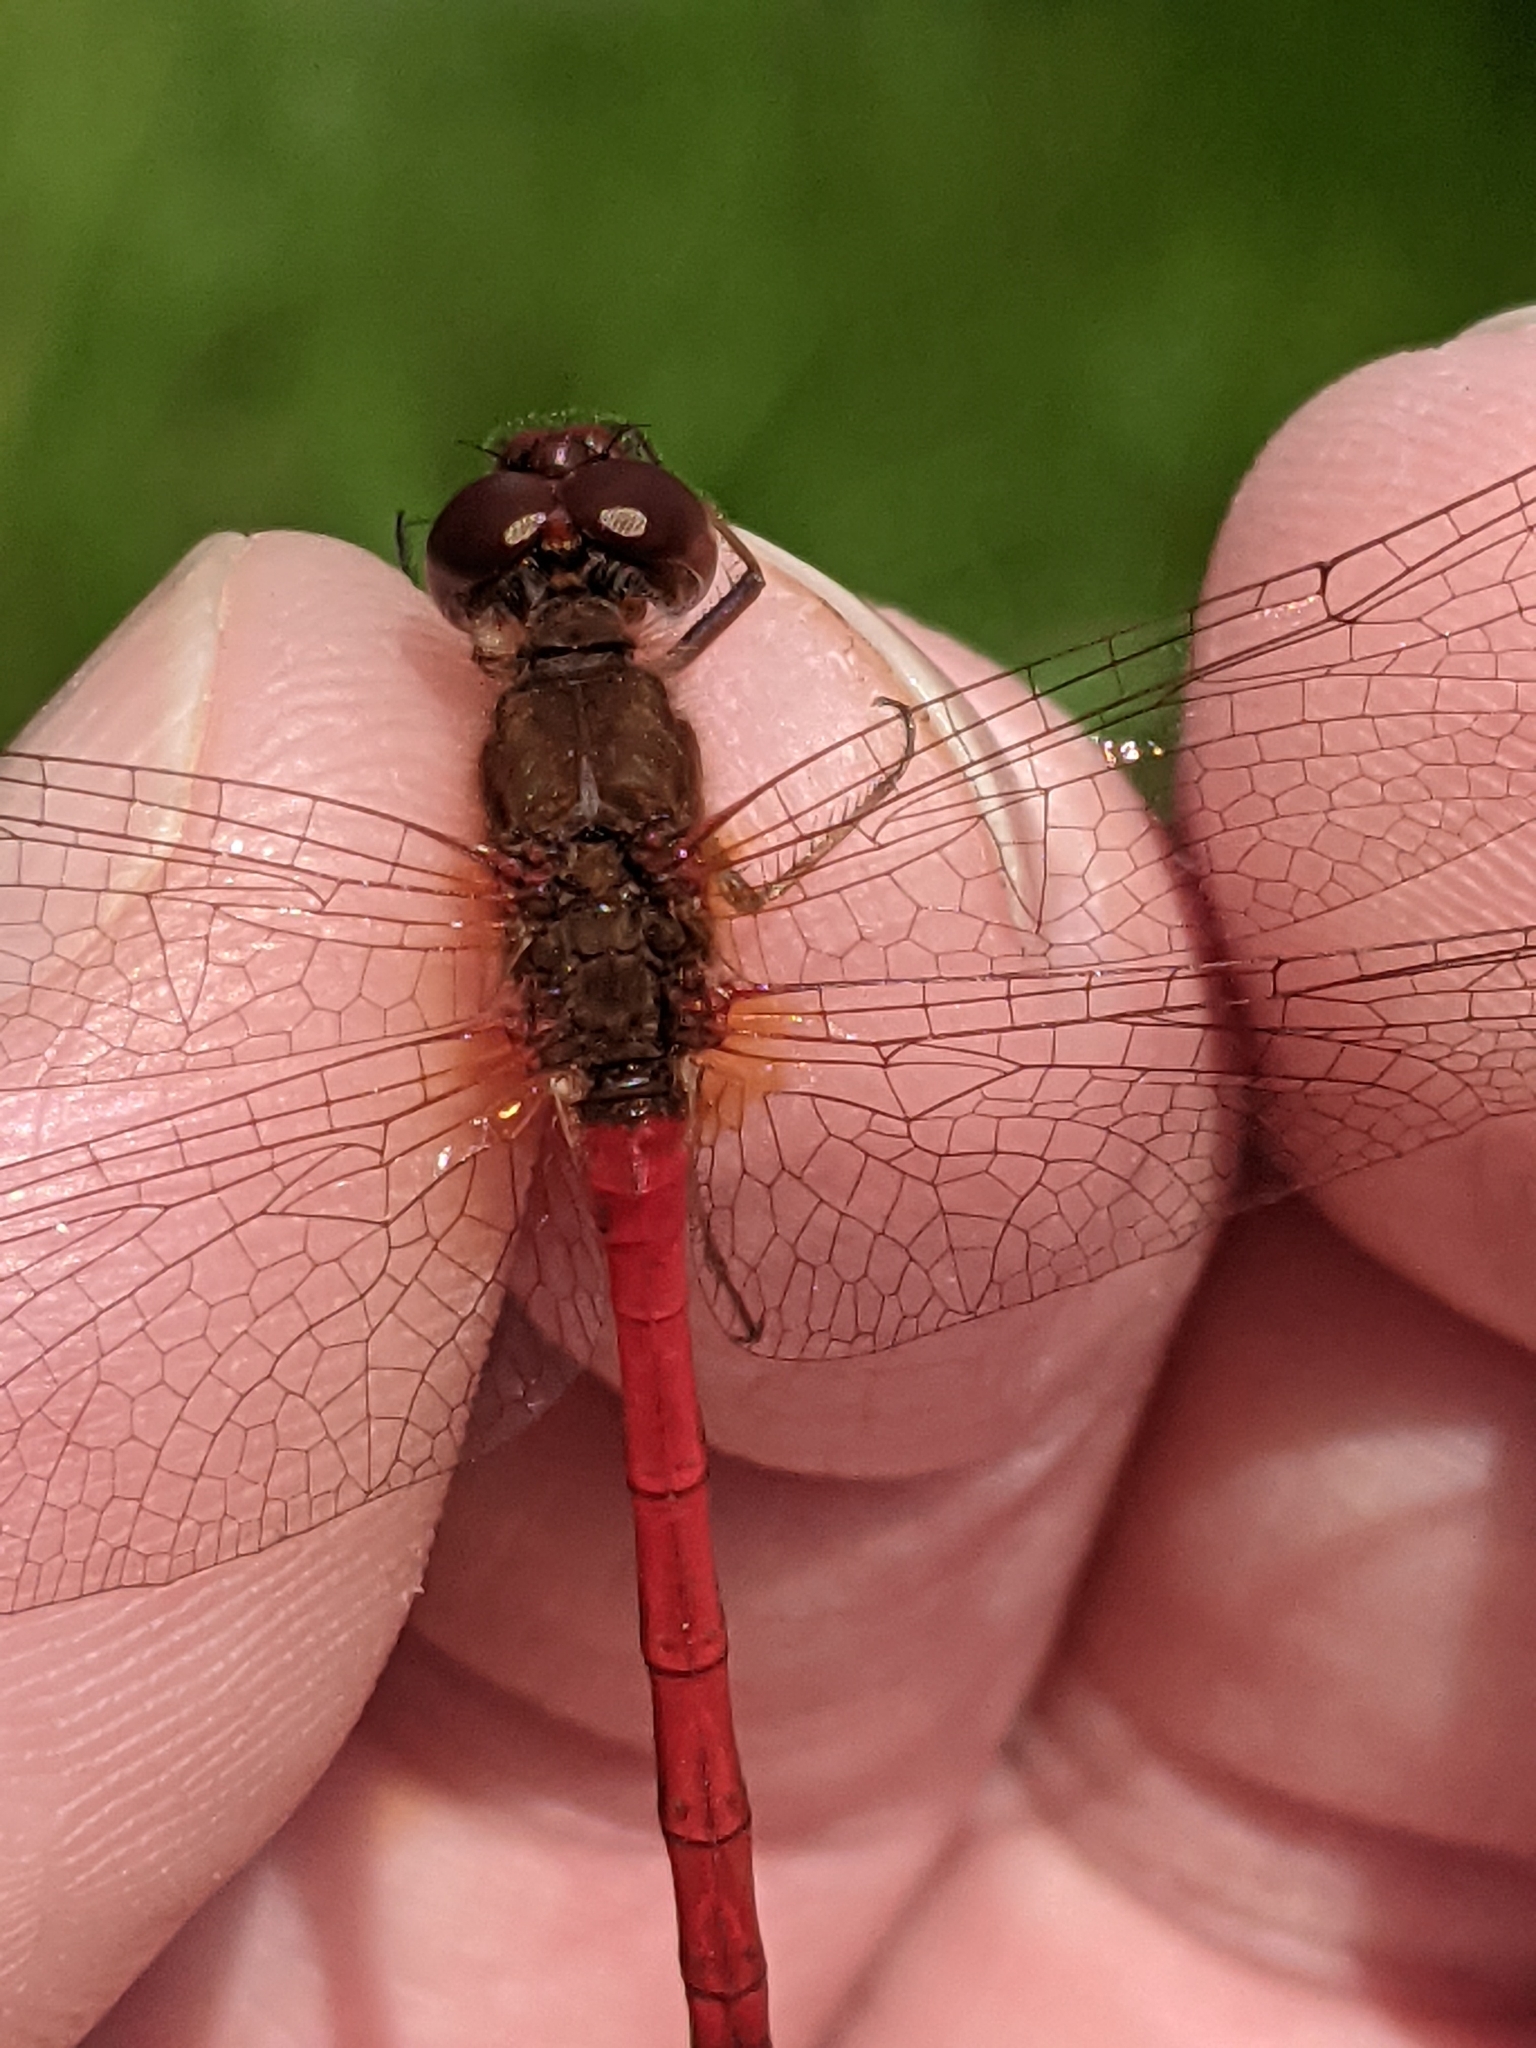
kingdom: Animalia
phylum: Arthropoda
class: Insecta
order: Odonata
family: Libellulidae
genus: Sympetrum
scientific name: Sympetrum vicinum
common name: Autumn meadowhawk
